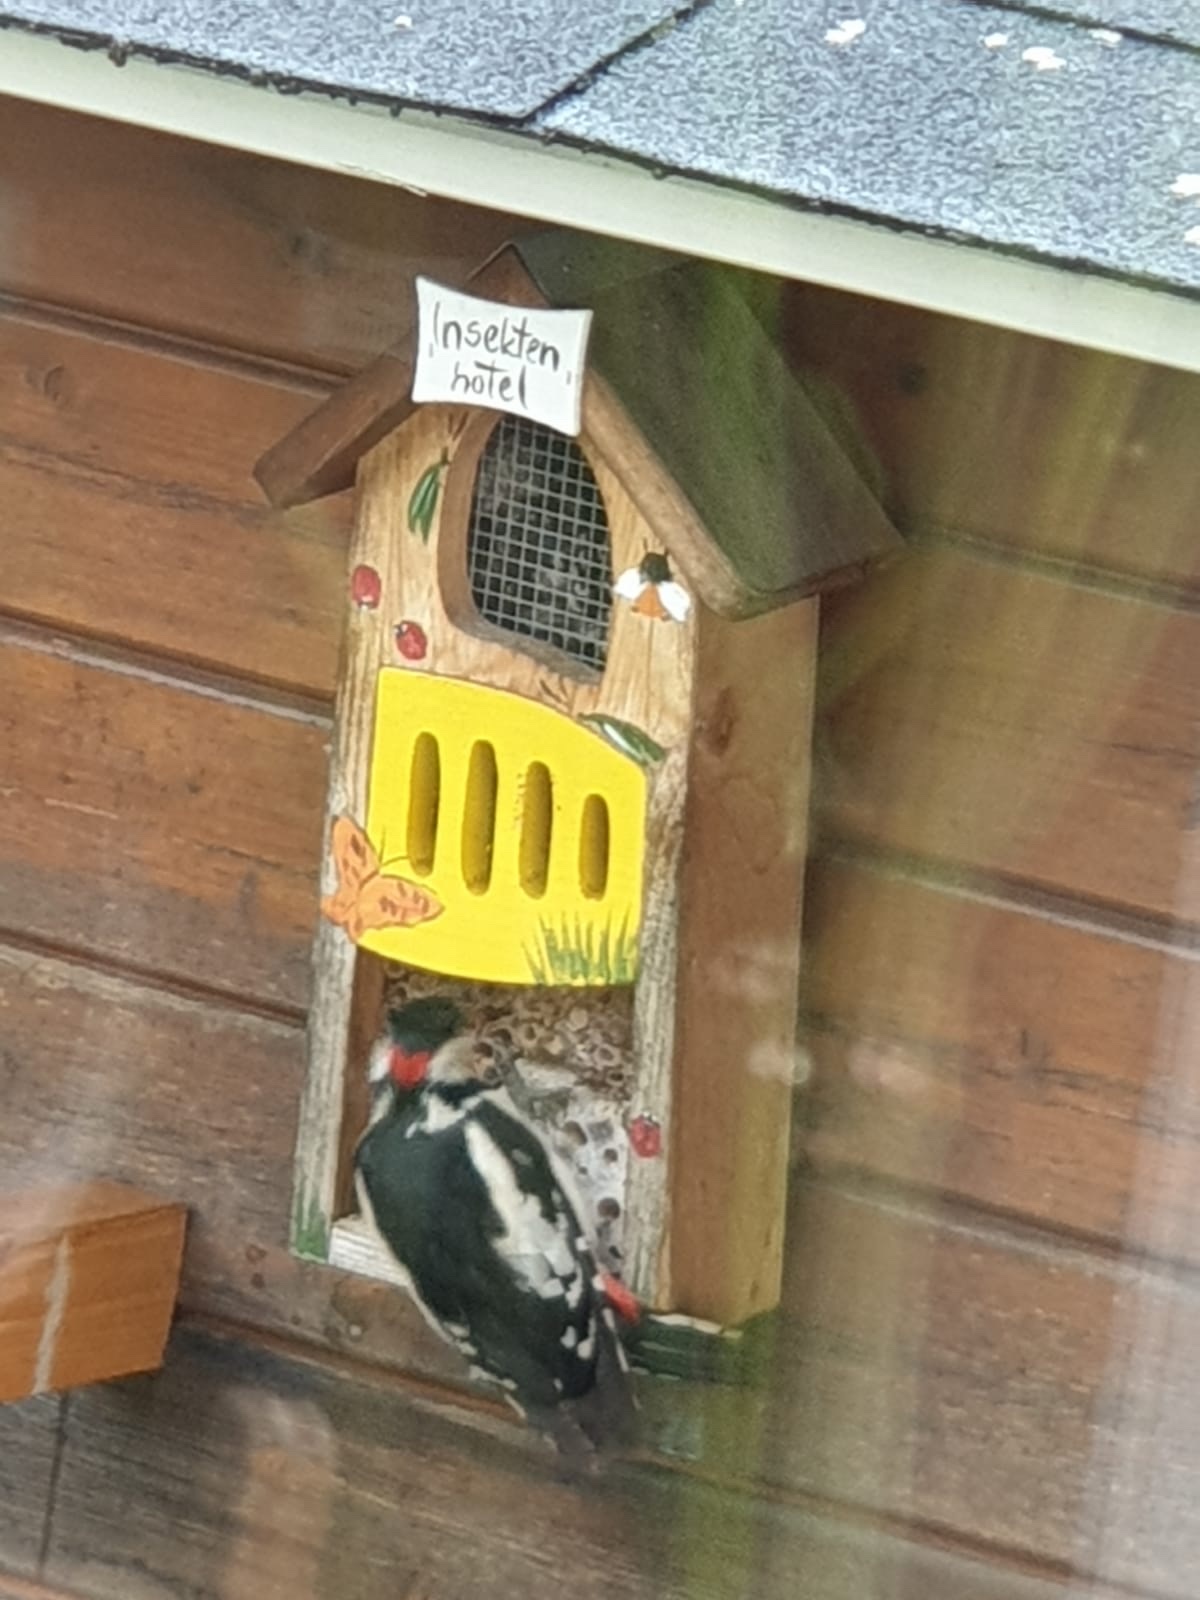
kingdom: Animalia
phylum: Chordata
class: Aves
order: Piciformes
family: Picidae
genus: Dendrocopos
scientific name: Dendrocopos major
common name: Great spotted woodpecker
